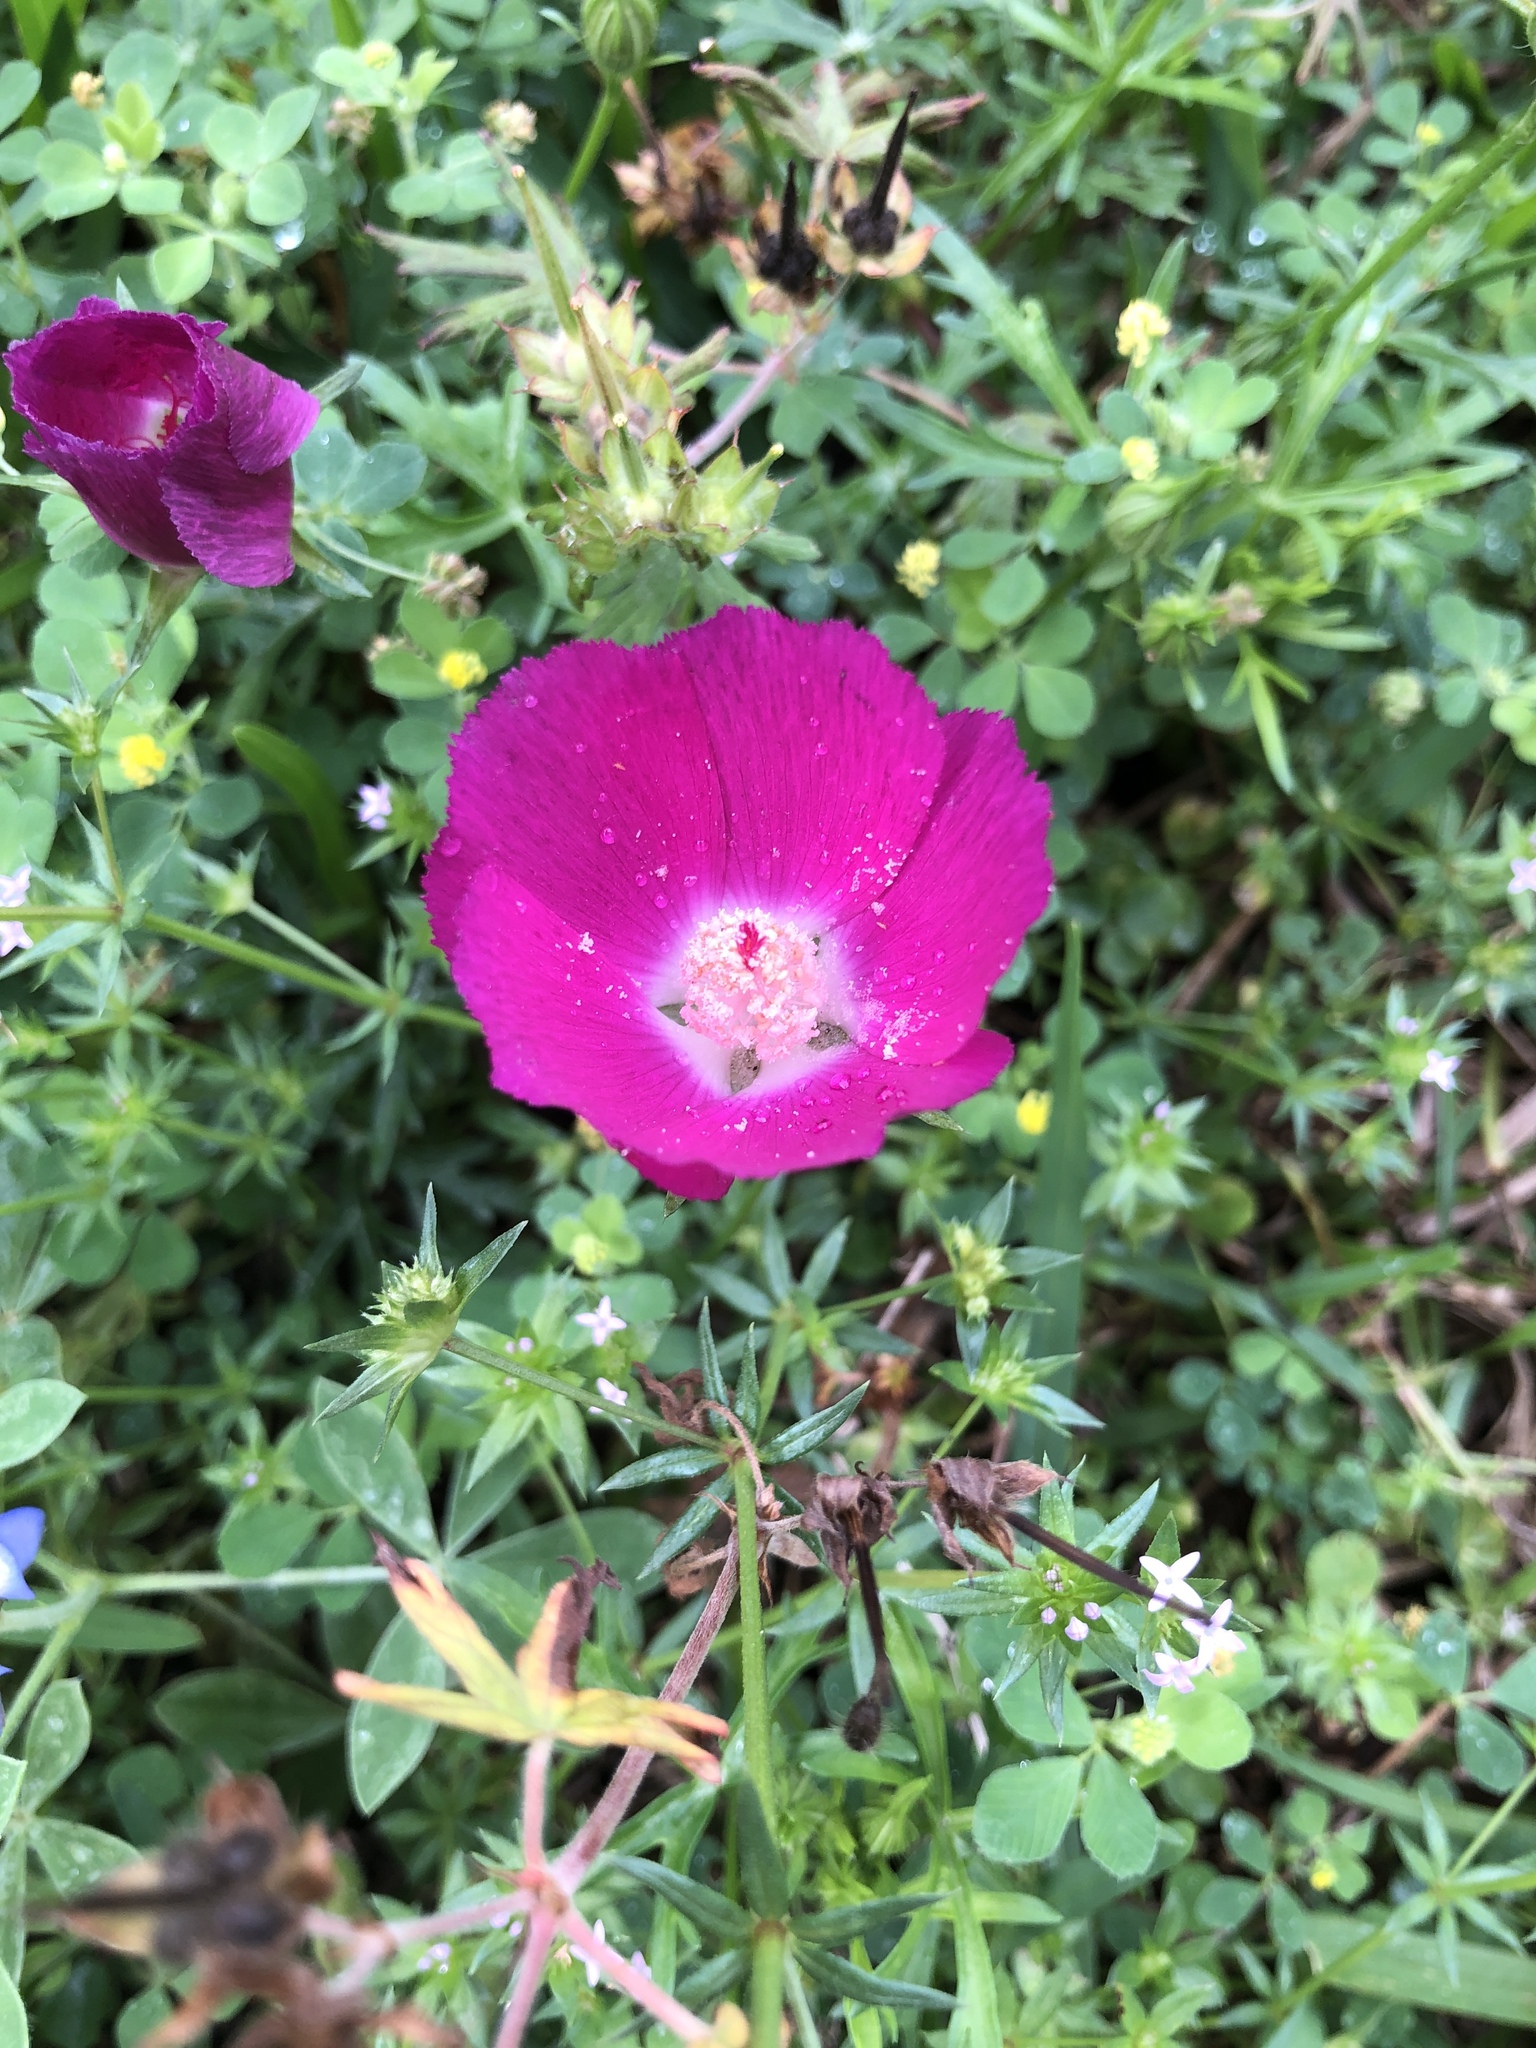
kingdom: Plantae
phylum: Tracheophyta
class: Magnoliopsida
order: Malvales
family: Malvaceae
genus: Callirhoe
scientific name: Callirhoe involucrata
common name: Purple poppy-mallow
